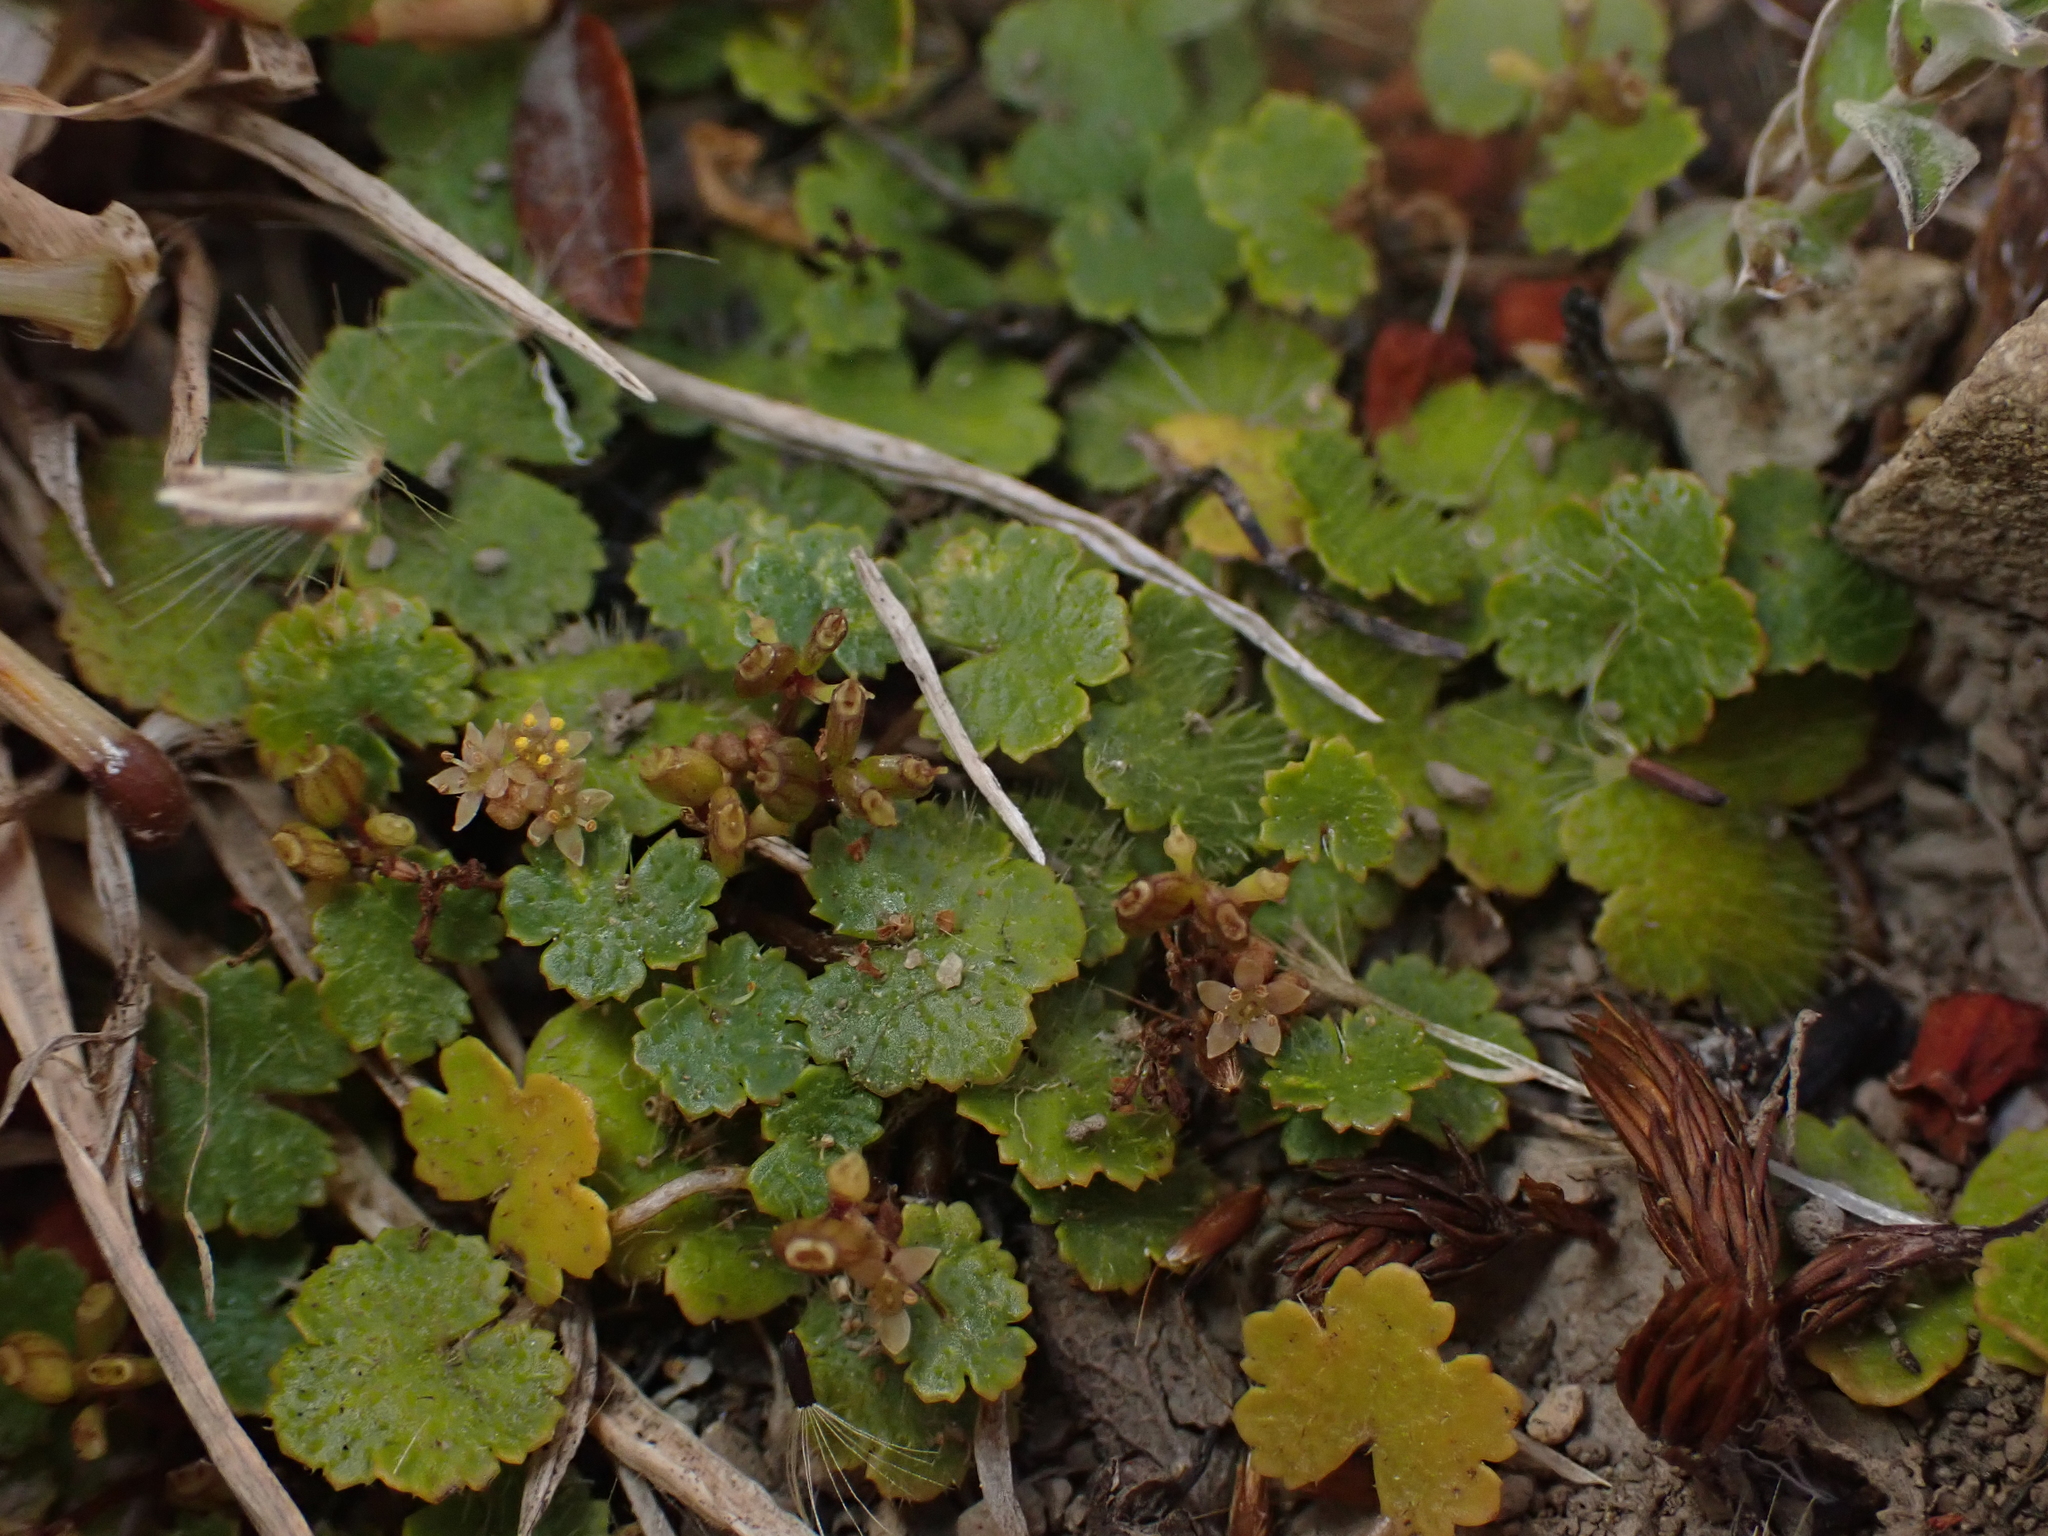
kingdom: Plantae
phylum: Tracheophyta
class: Magnoliopsida
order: Apiales
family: Araliaceae
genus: Hydrocotyle
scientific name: Hydrocotyle novae-zeelandiae
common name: New zealand pennywort
